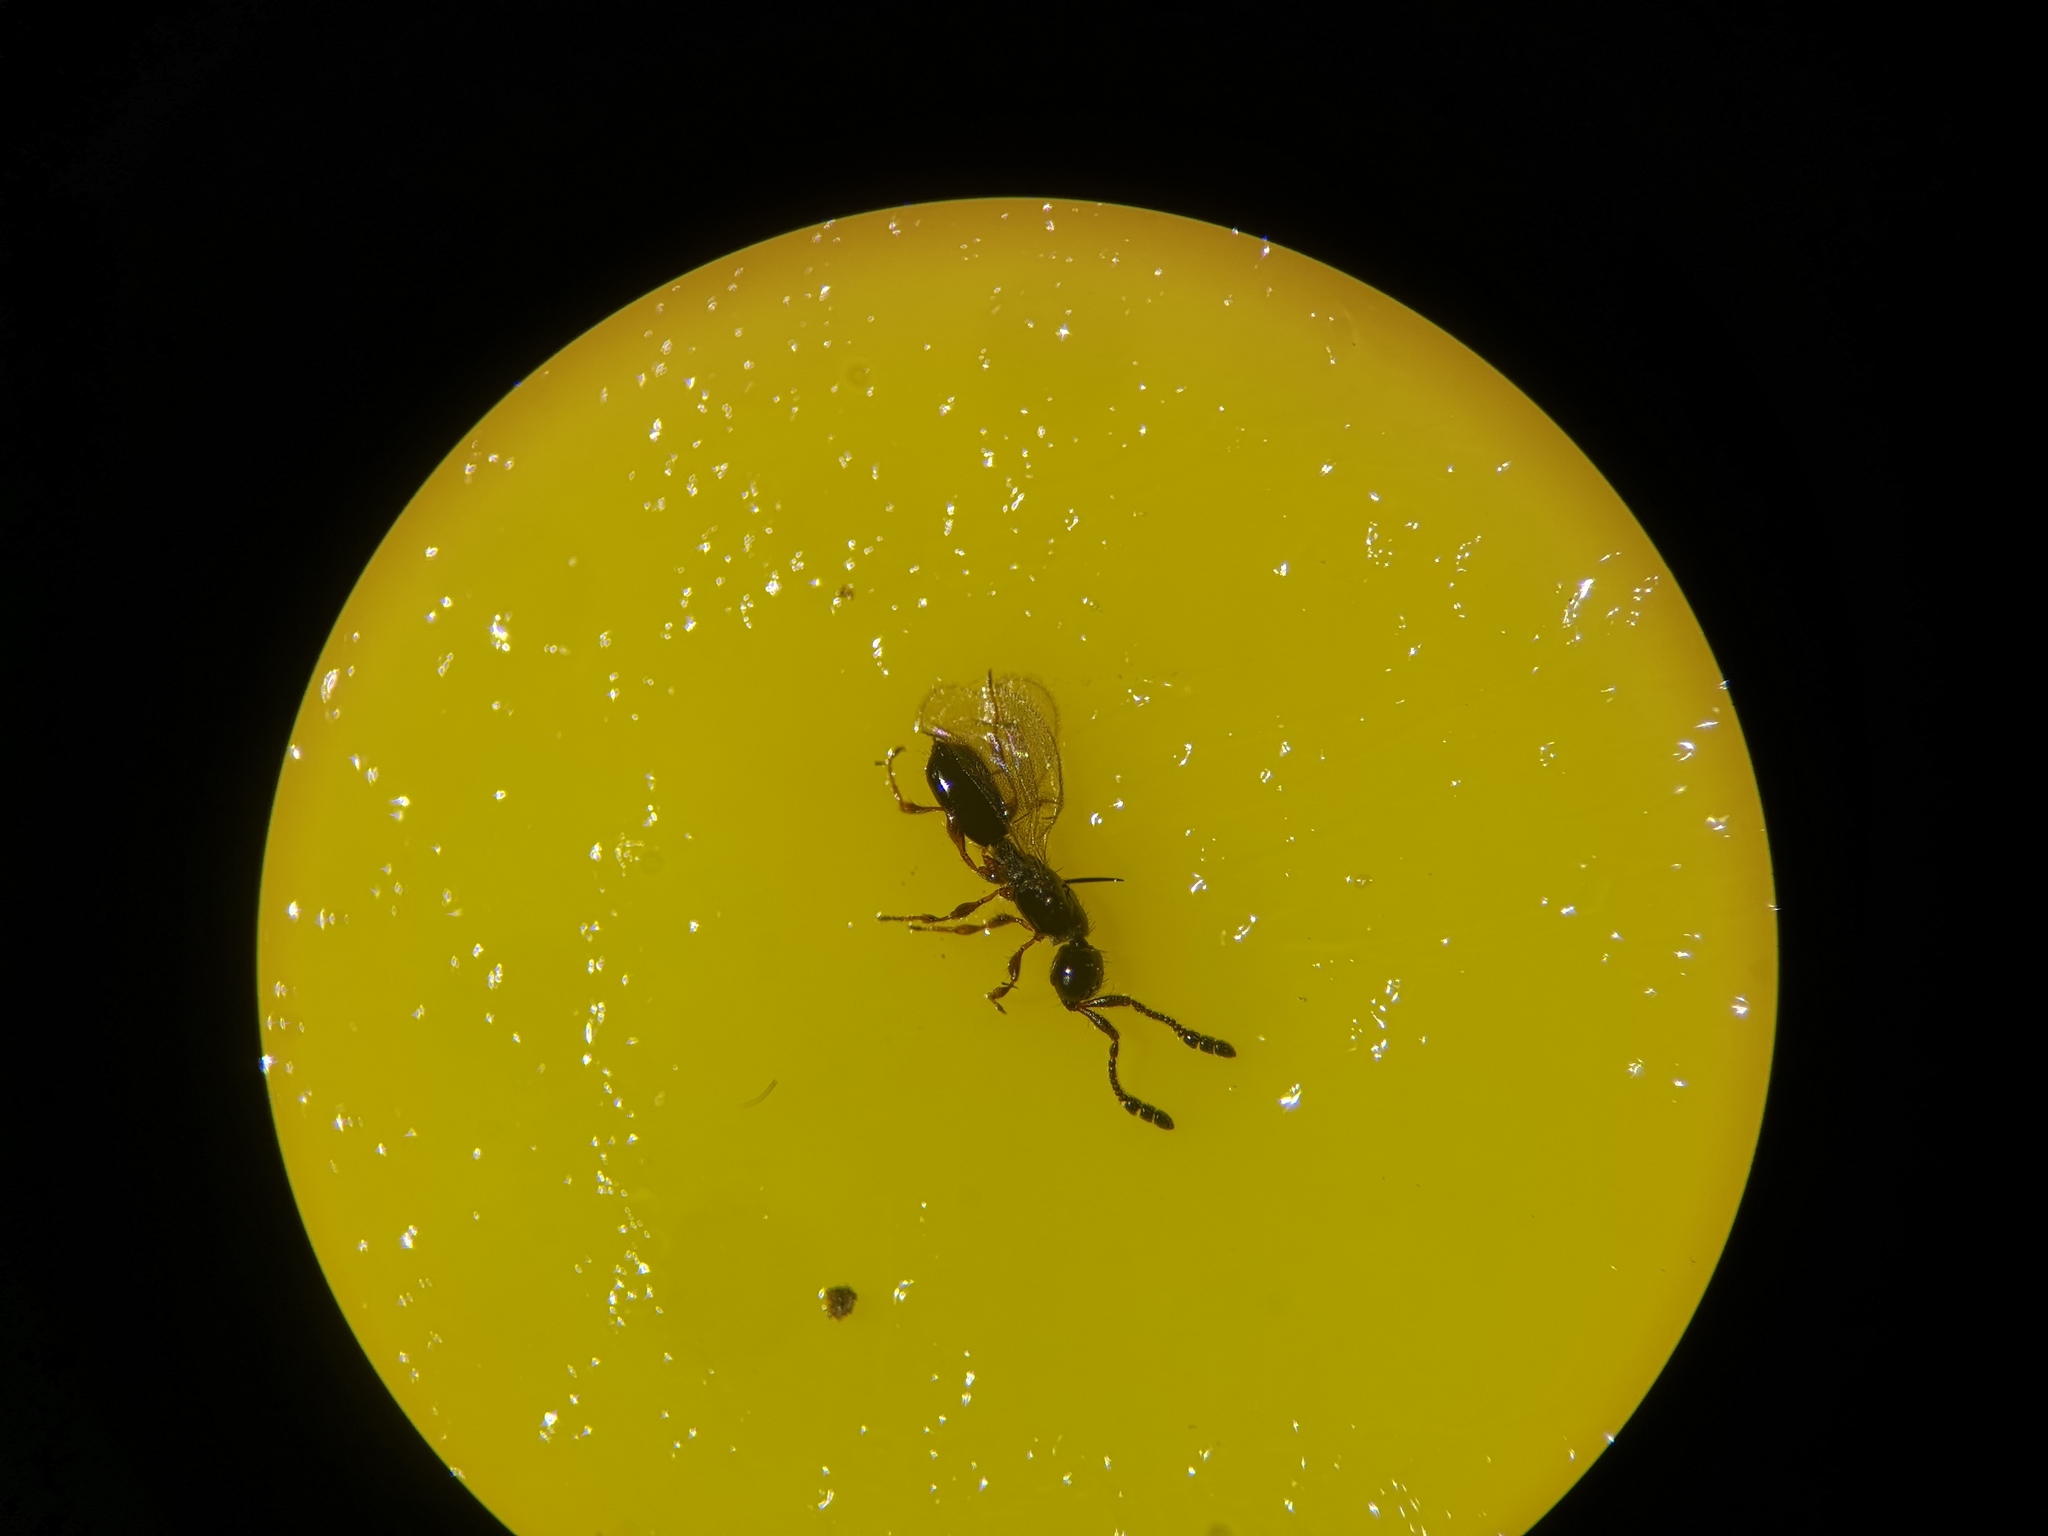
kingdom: Animalia
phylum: Arthropoda
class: Insecta
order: Hymenoptera
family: Diapriidae
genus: Basalys
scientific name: Basalys tritoma
